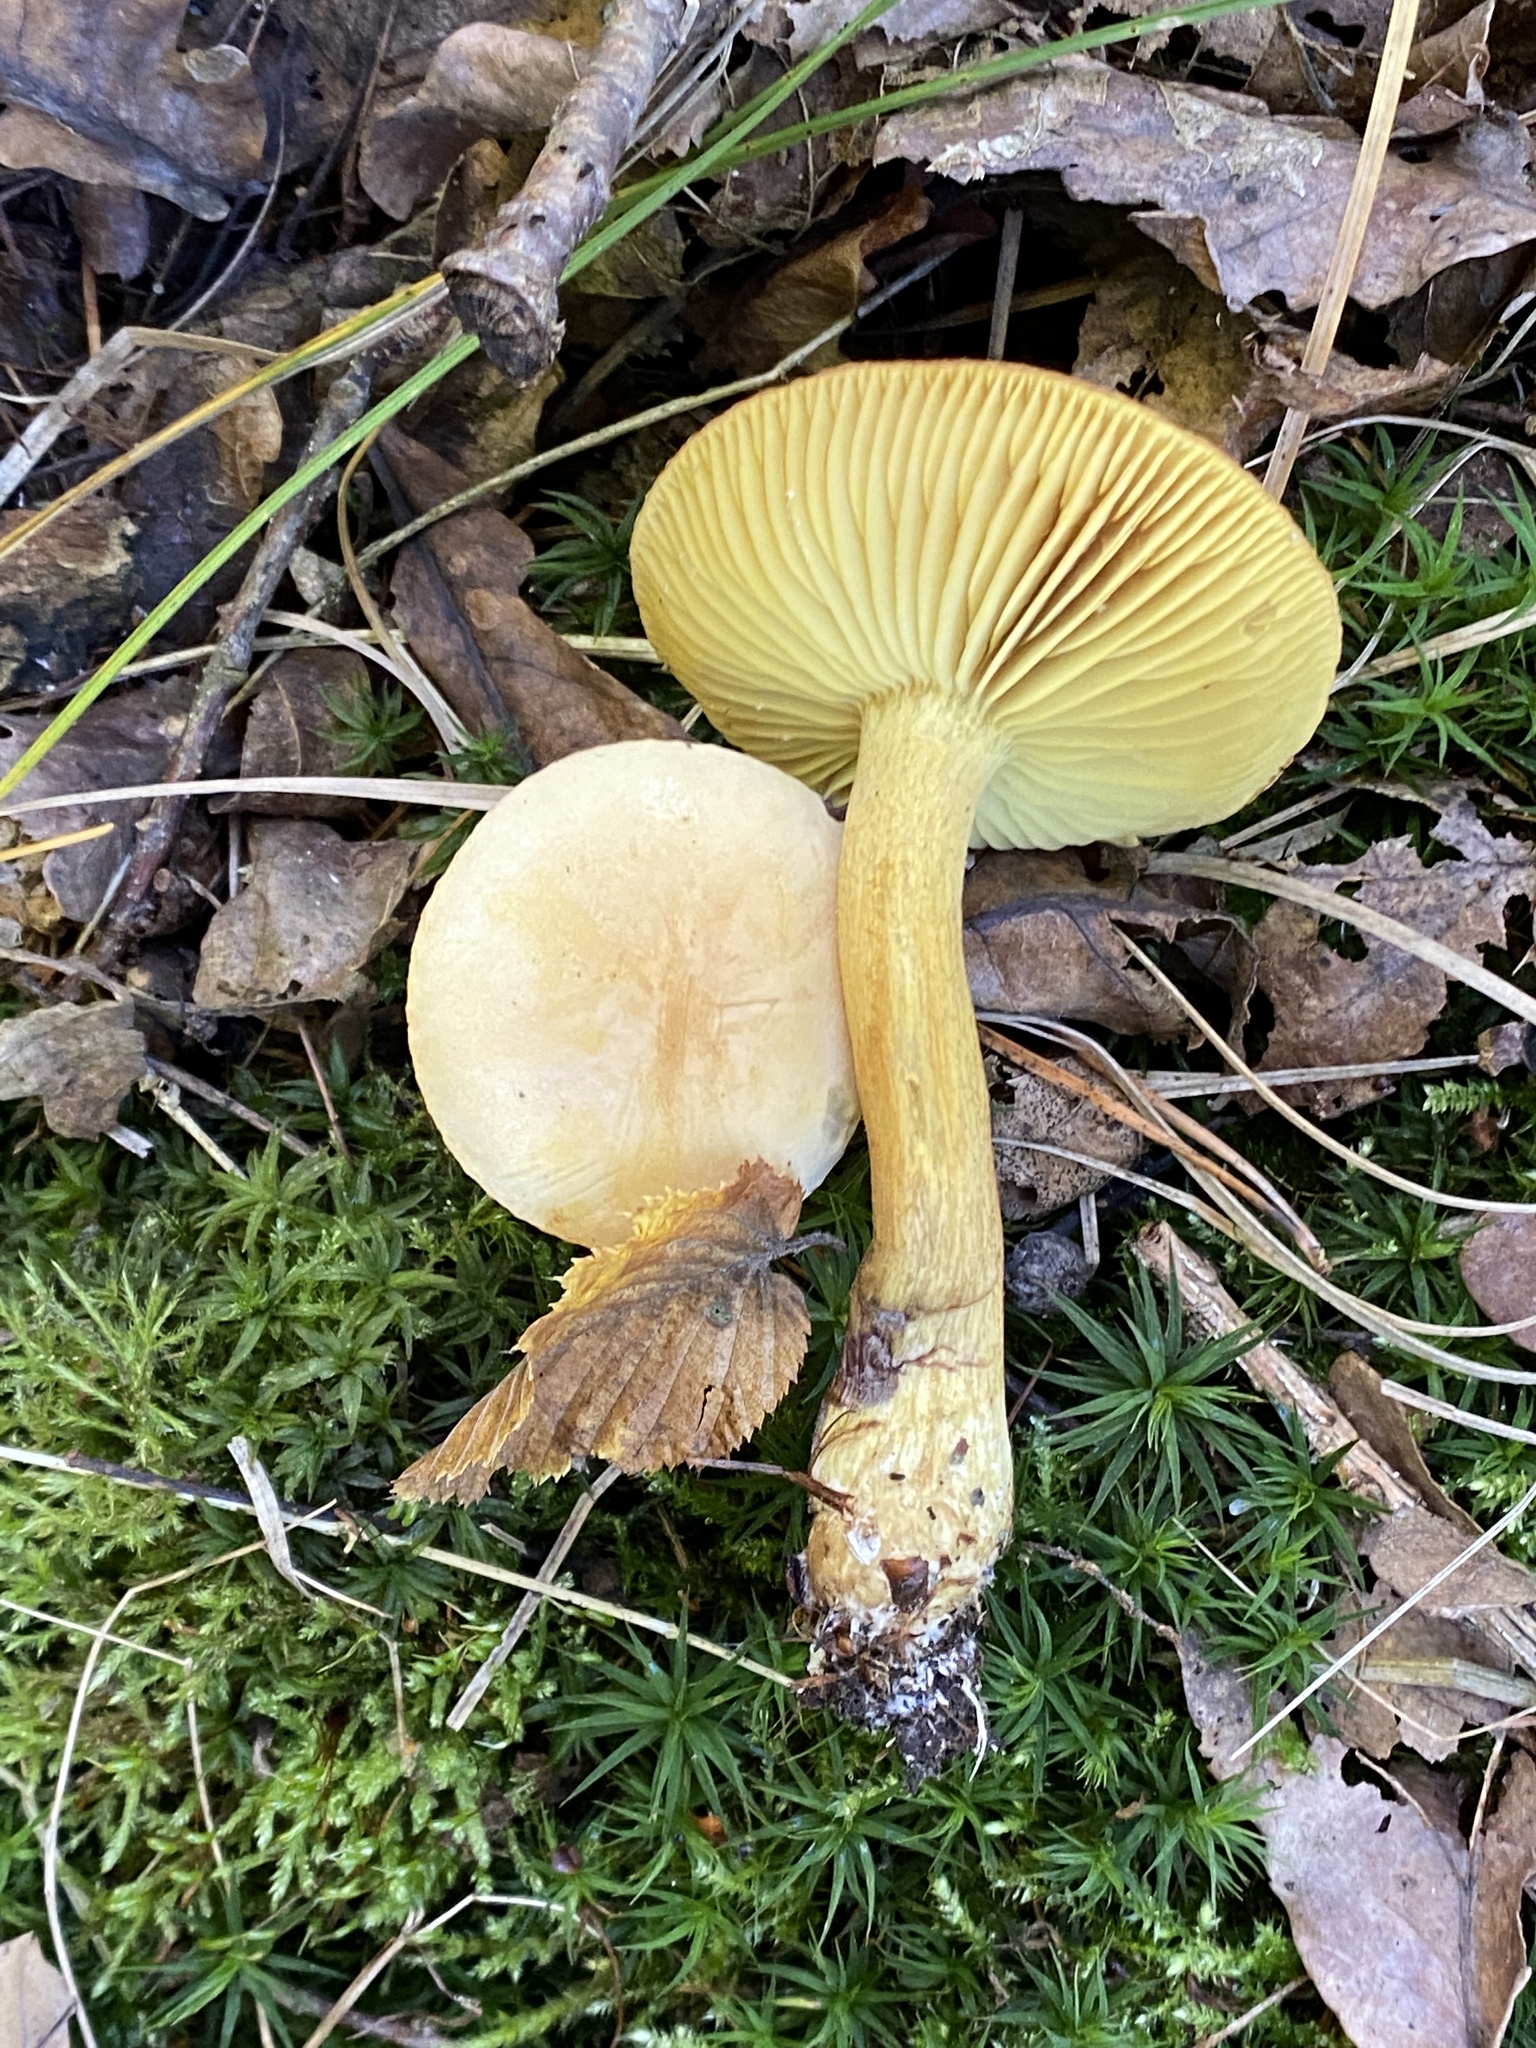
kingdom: Fungi
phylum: Basidiomycota
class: Agaricomycetes
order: Agaricales
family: Tricholomataceae
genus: Tricholoma
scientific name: Tricholoma sulphureum
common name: Stinky knight
